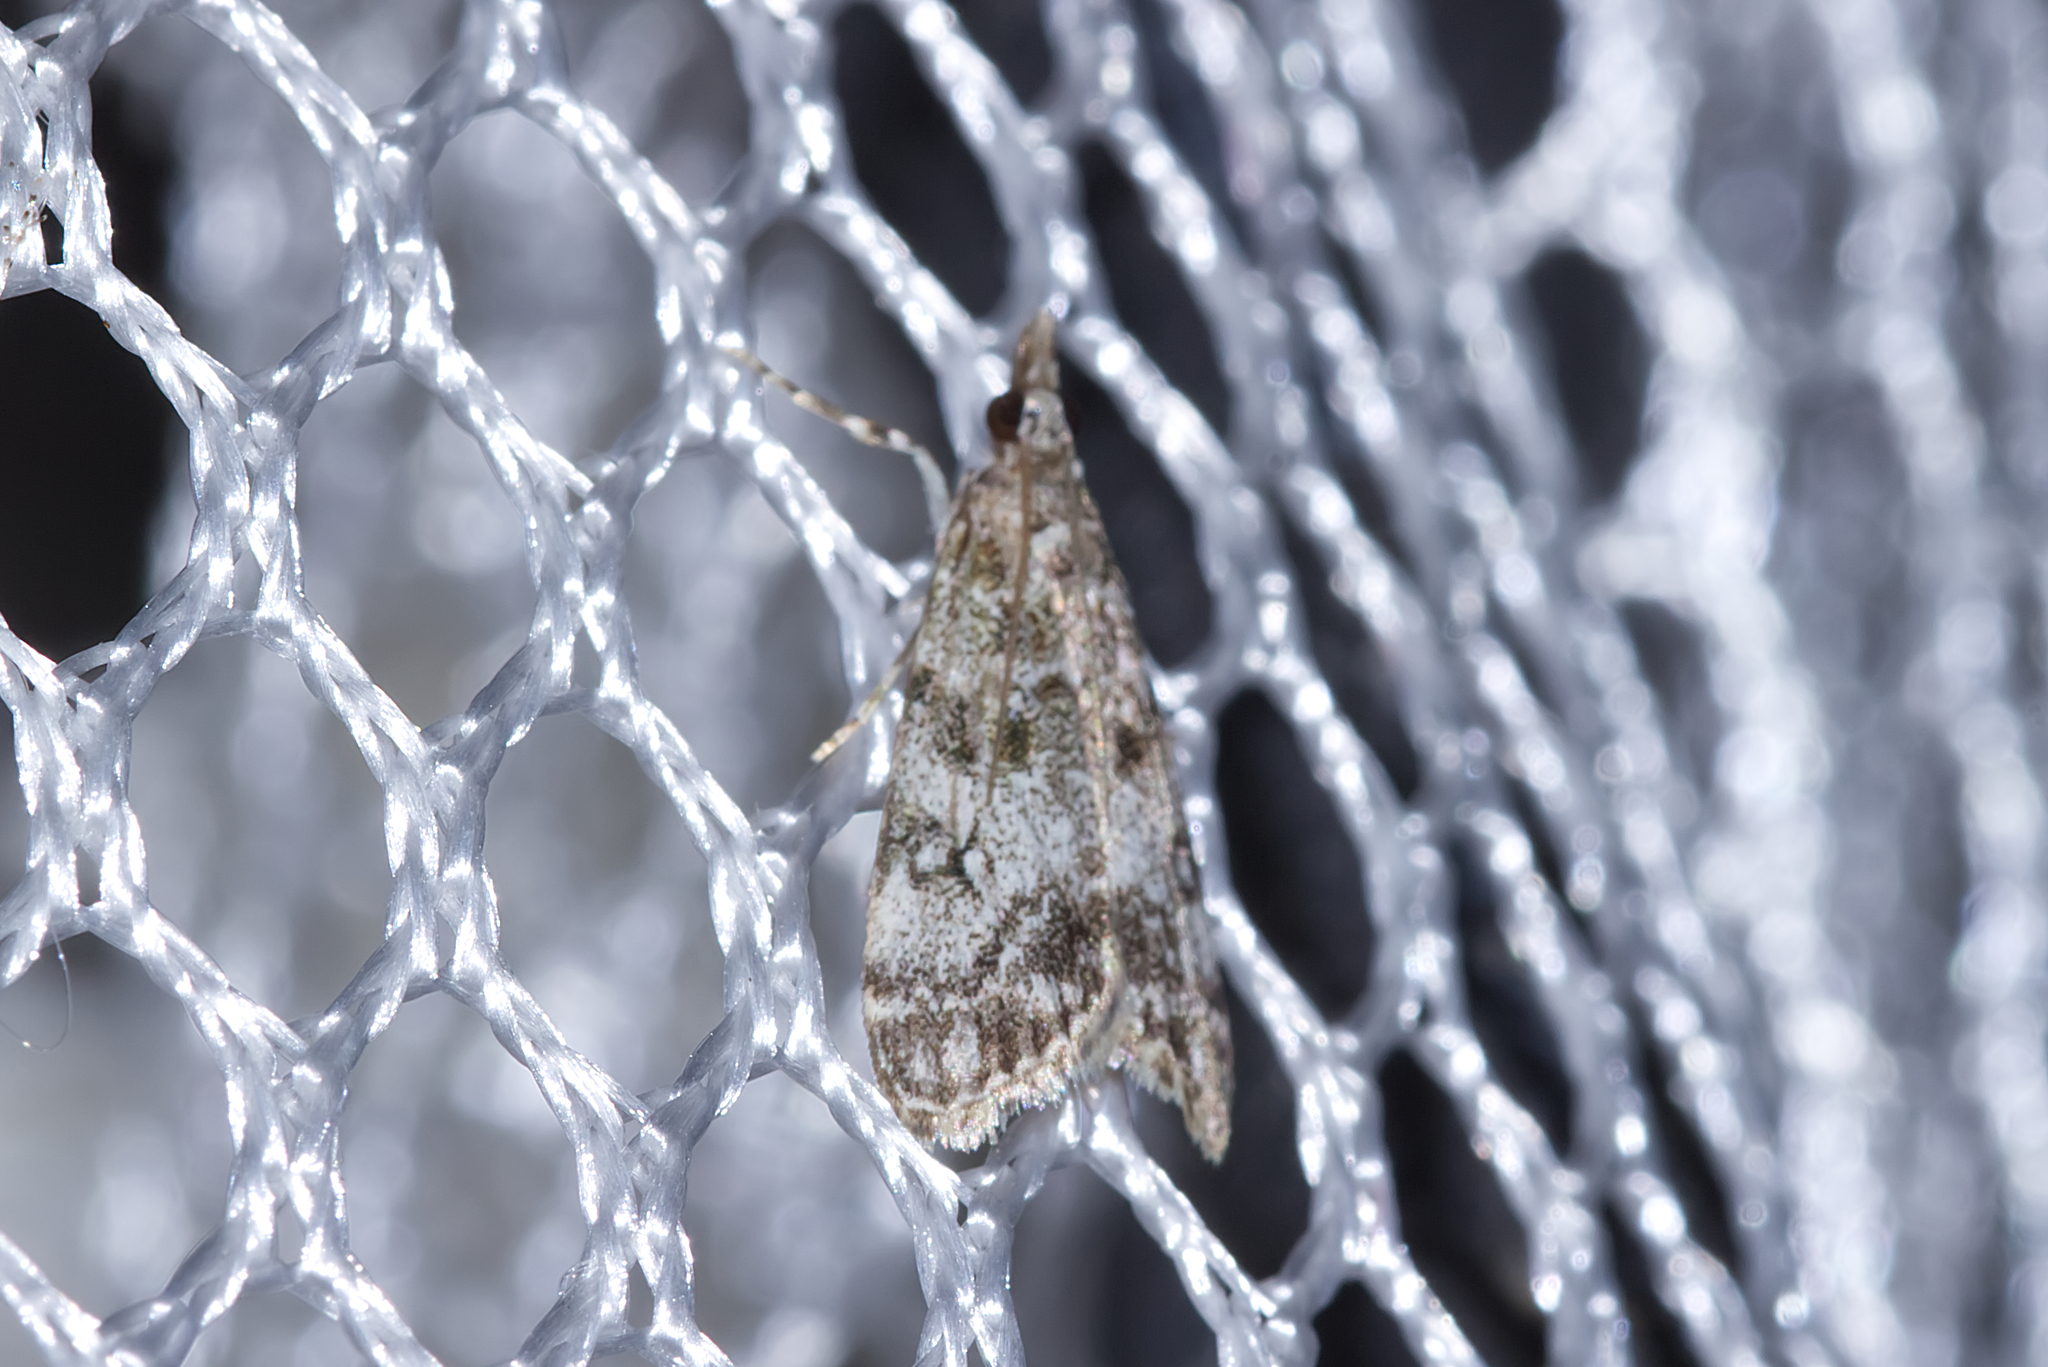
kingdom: Animalia
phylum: Arthropoda
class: Insecta
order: Lepidoptera
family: Crambidae
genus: Eudonia
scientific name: Eudonia lacustrata
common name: Little grey
